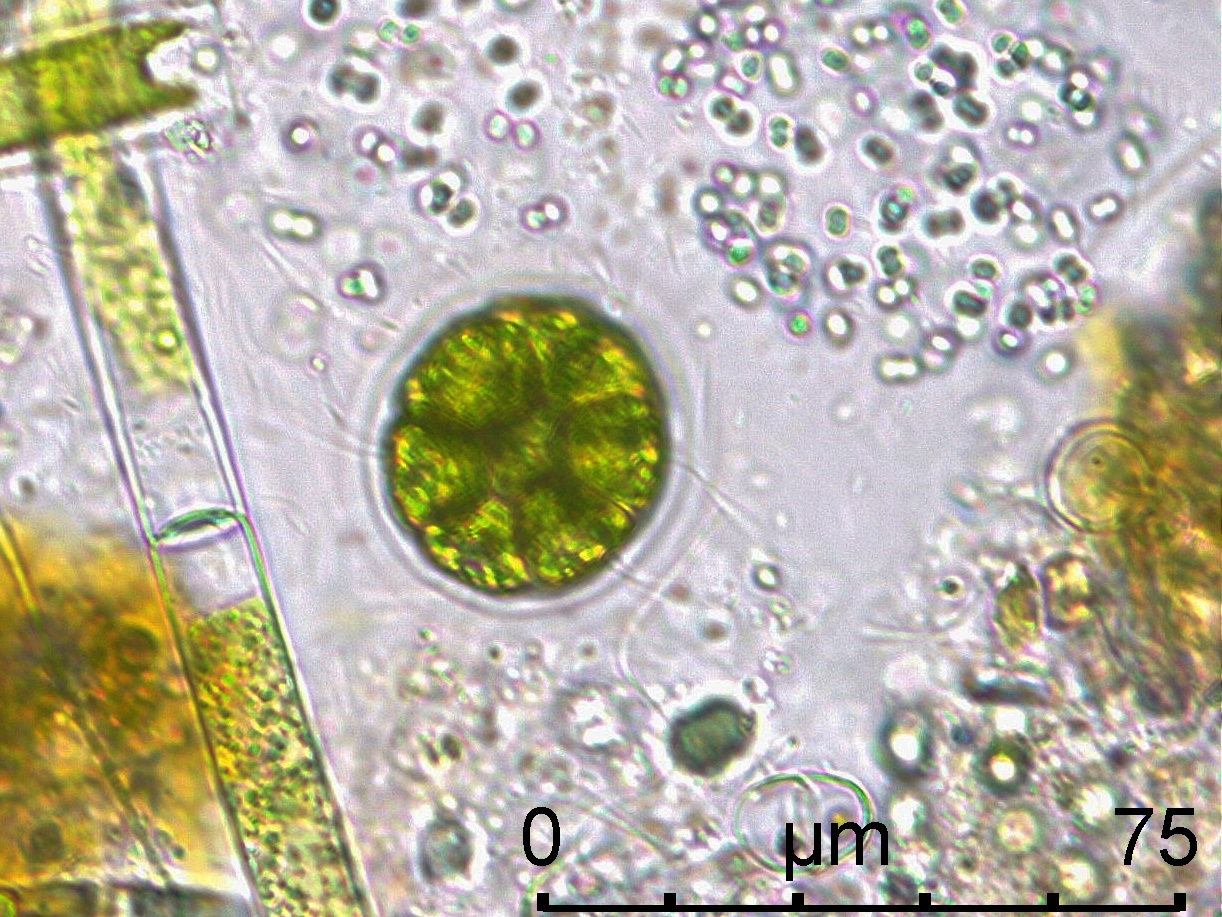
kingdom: Plantae
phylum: Chlorophyta
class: Chlorophyceae
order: Volvocales
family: Volvocaceae
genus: Pandorina
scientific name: Pandorina morum
